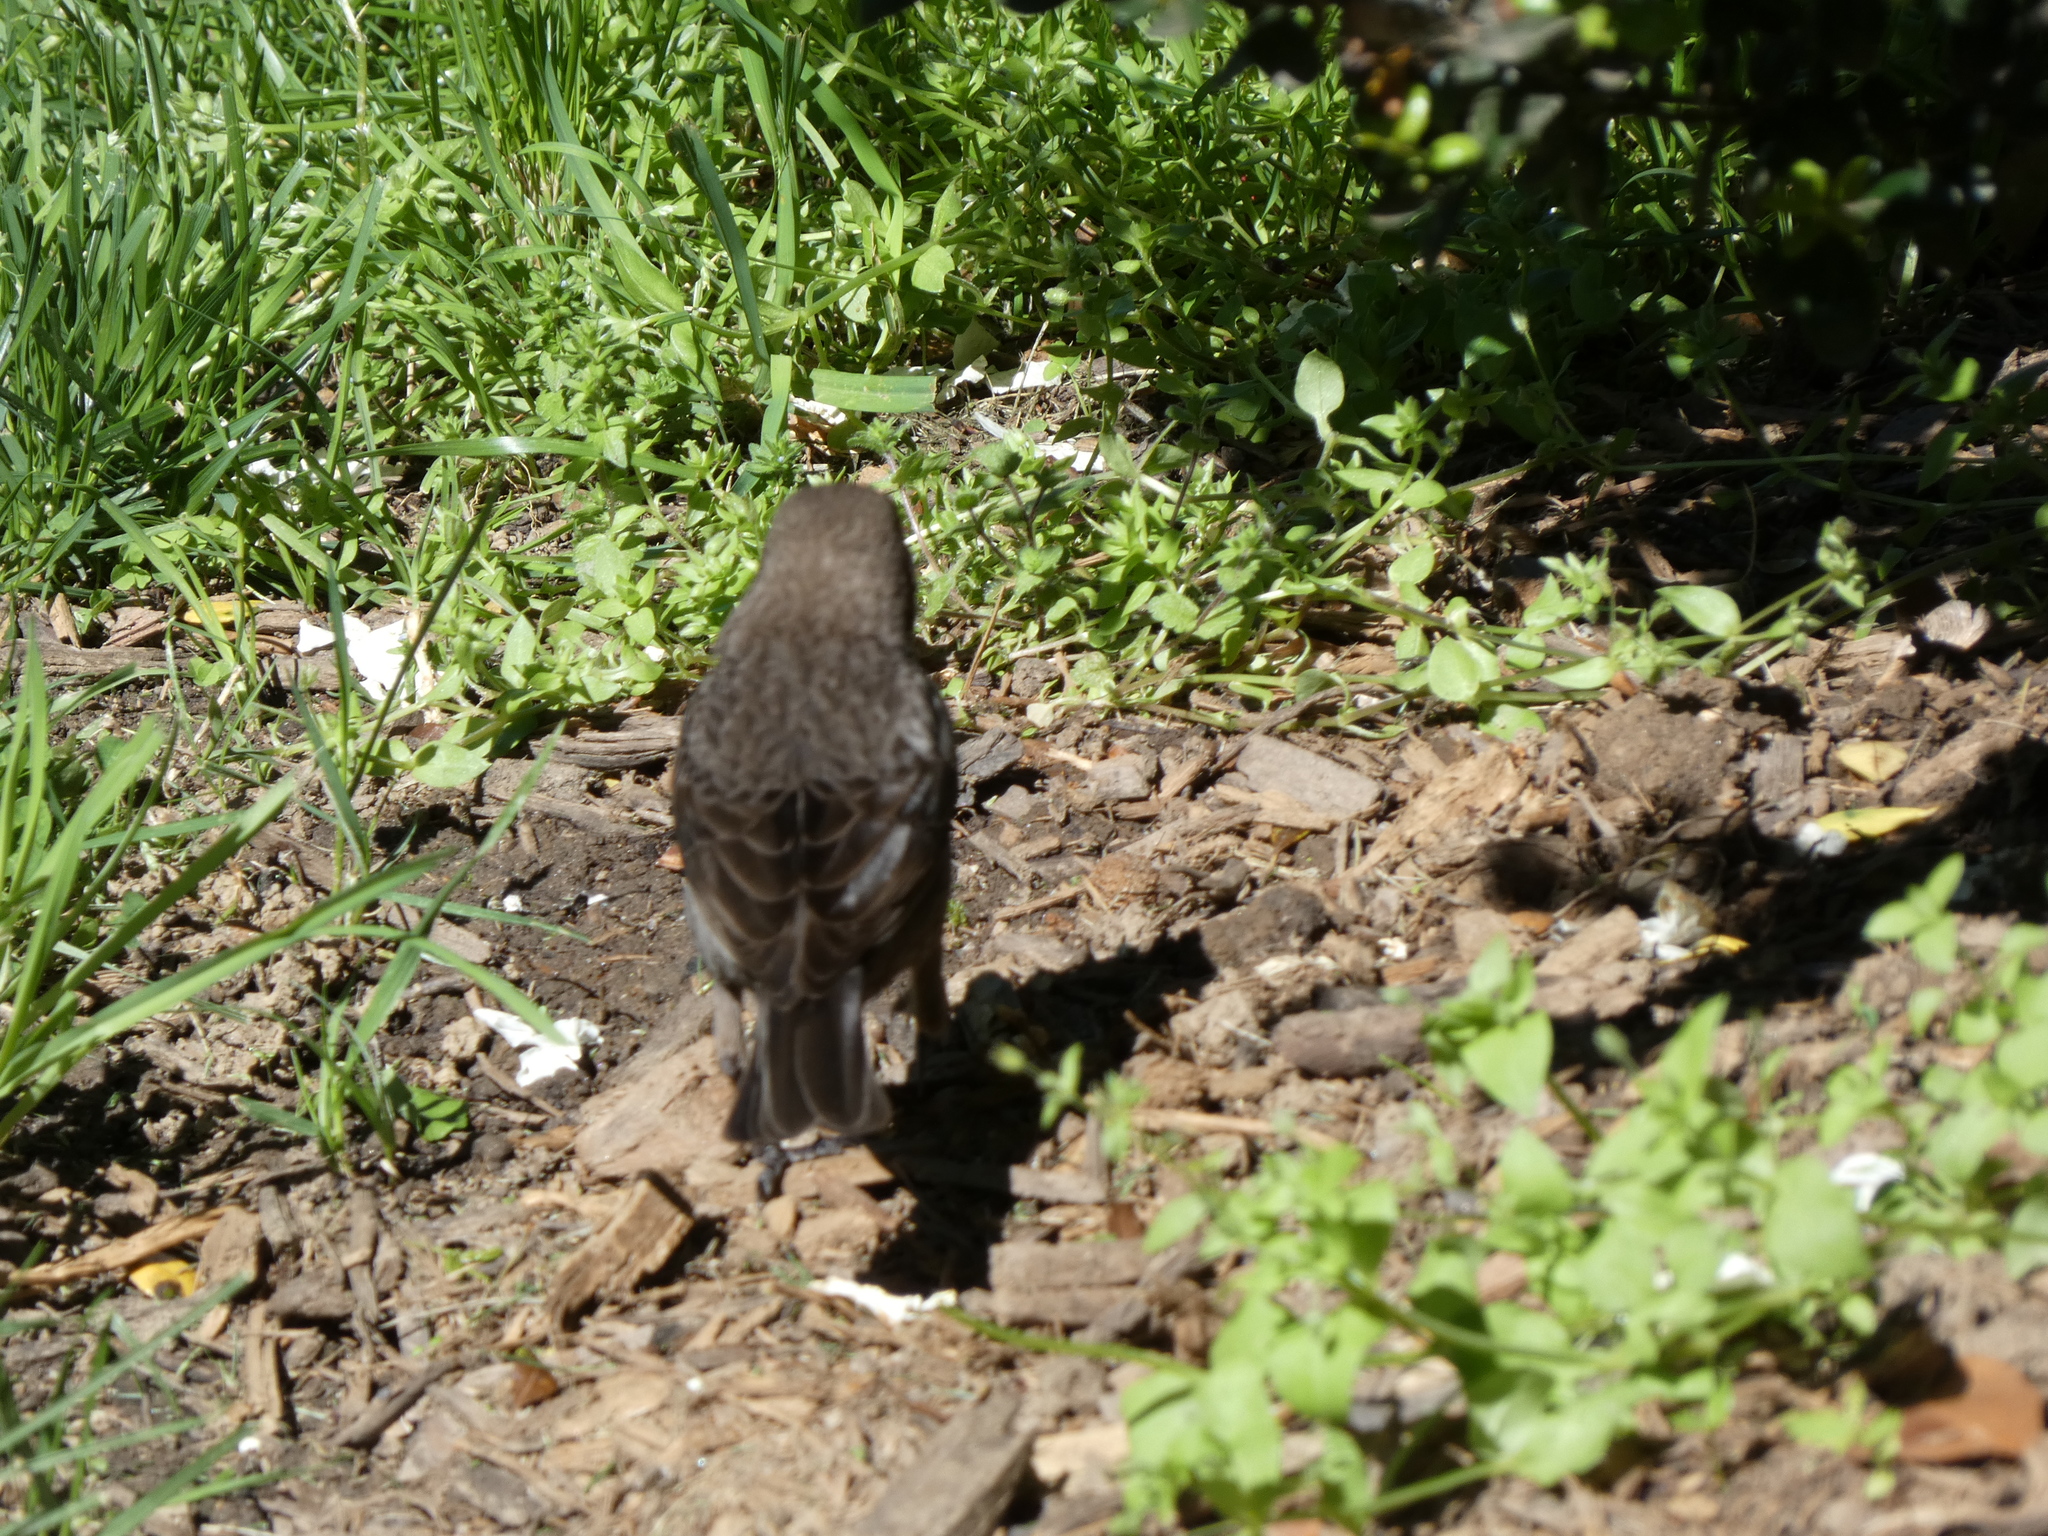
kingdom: Animalia
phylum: Chordata
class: Aves
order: Passeriformes
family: Icteridae
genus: Molothrus
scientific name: Molothrus ater
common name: Brown-headed cowbird
